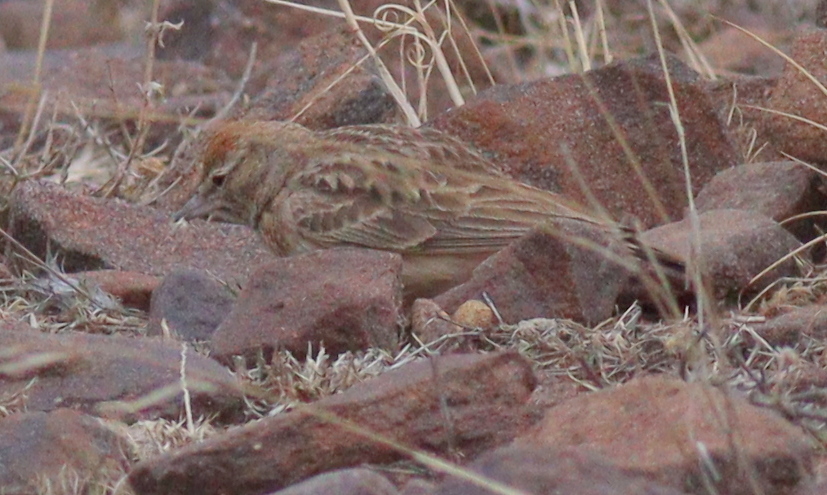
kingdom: Animalia
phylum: Chordata
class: Aves
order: Passeriformes
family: Alaudidae
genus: Calandrella
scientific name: Calandrella blanfordi
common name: Blanford's lark
